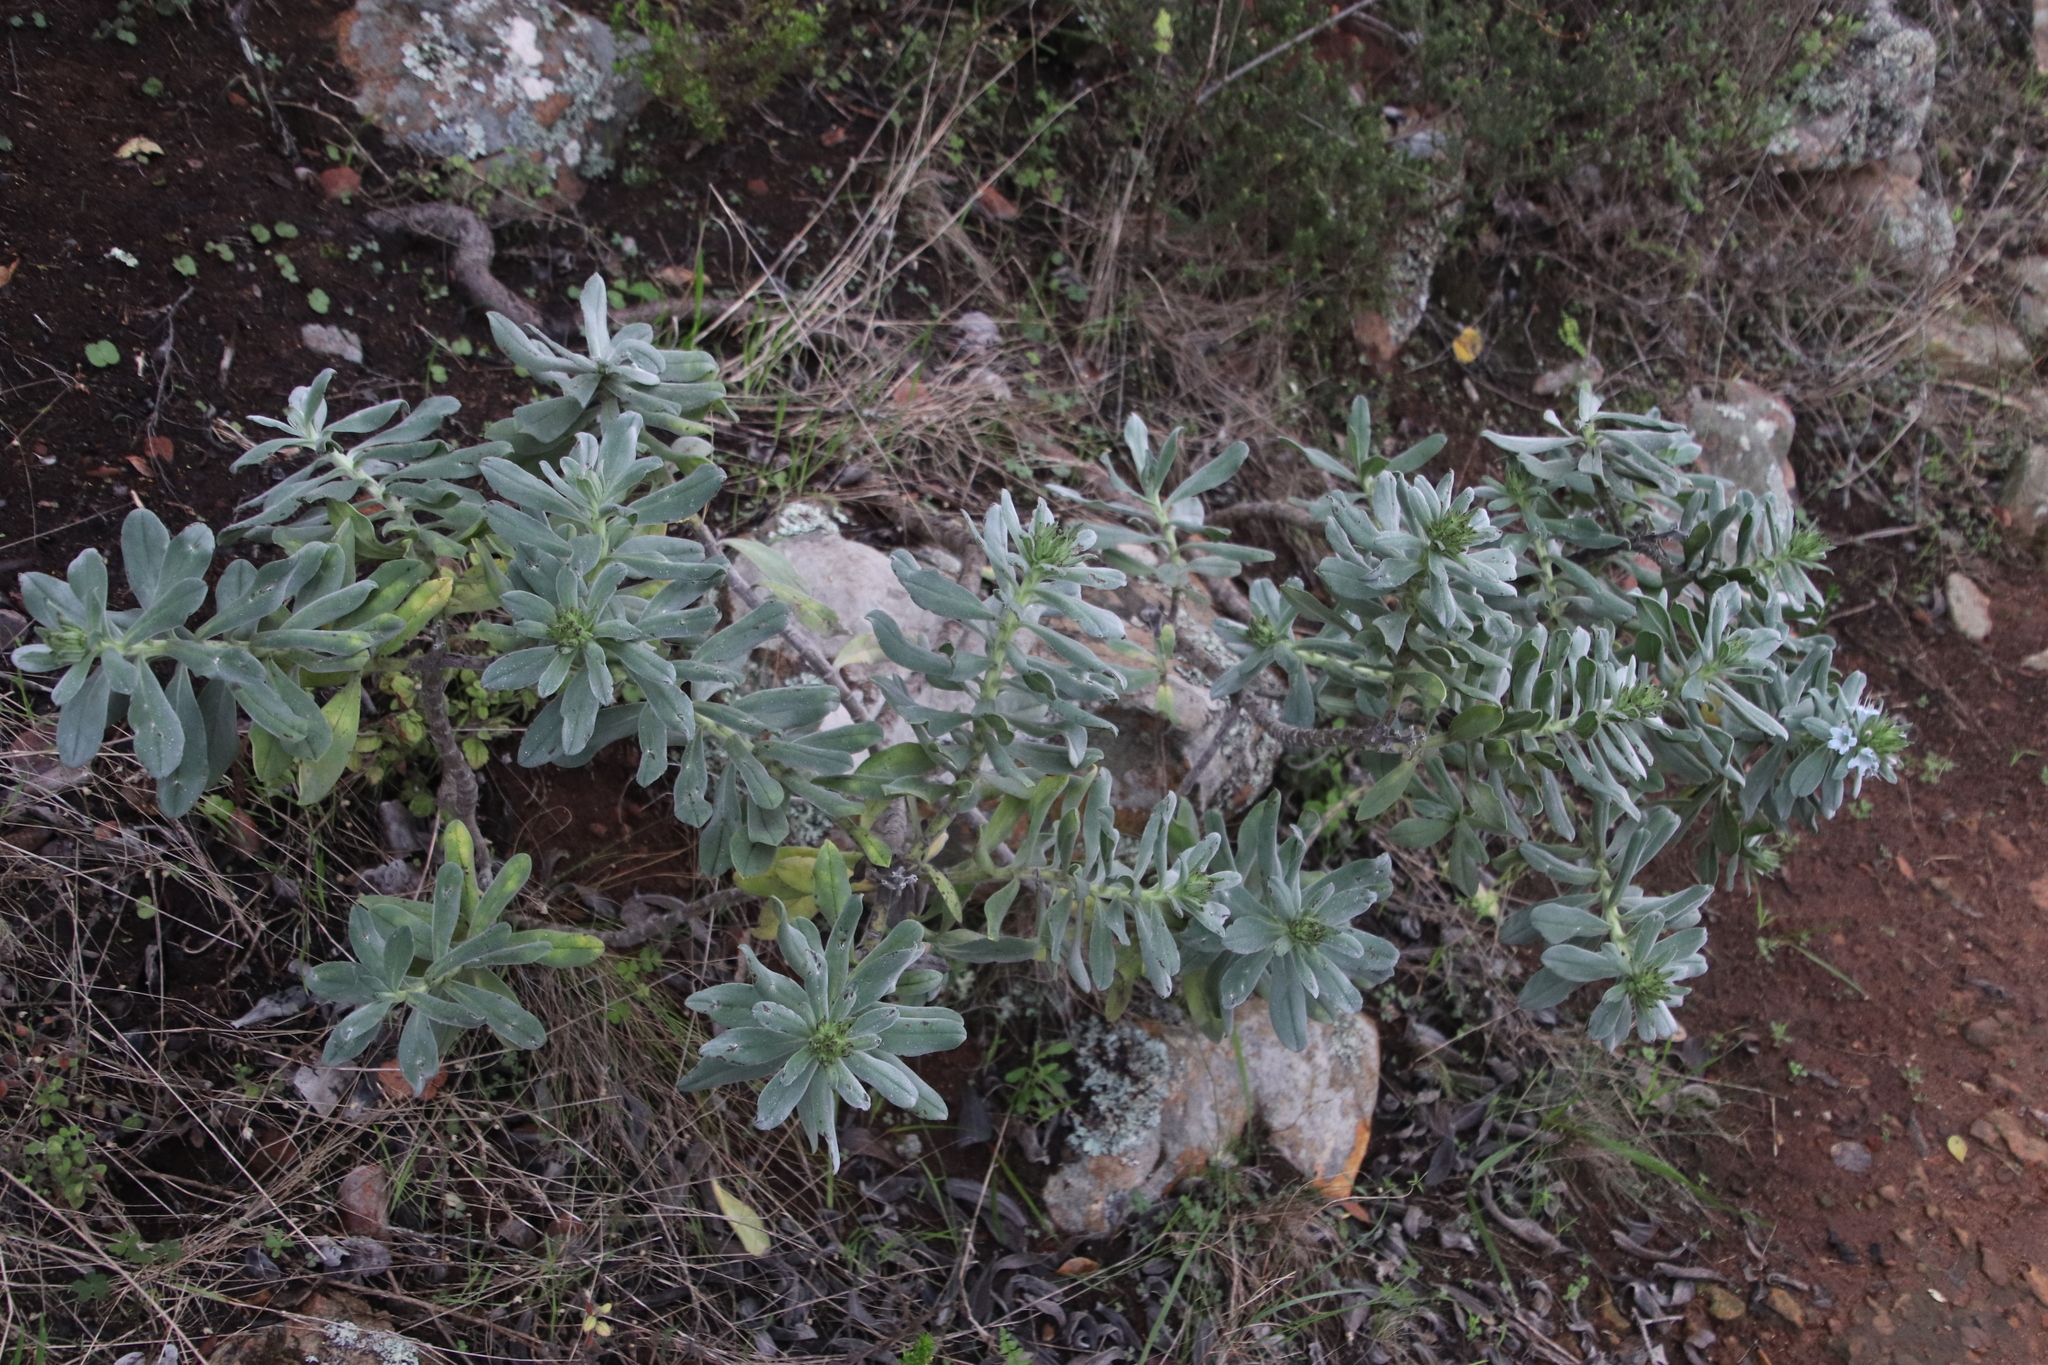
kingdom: Plantae
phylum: Tracheophyta
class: Magnoliopsida
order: Boraginales
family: Boraginaceae
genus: Lobostemon
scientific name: Lobostemon montanus
